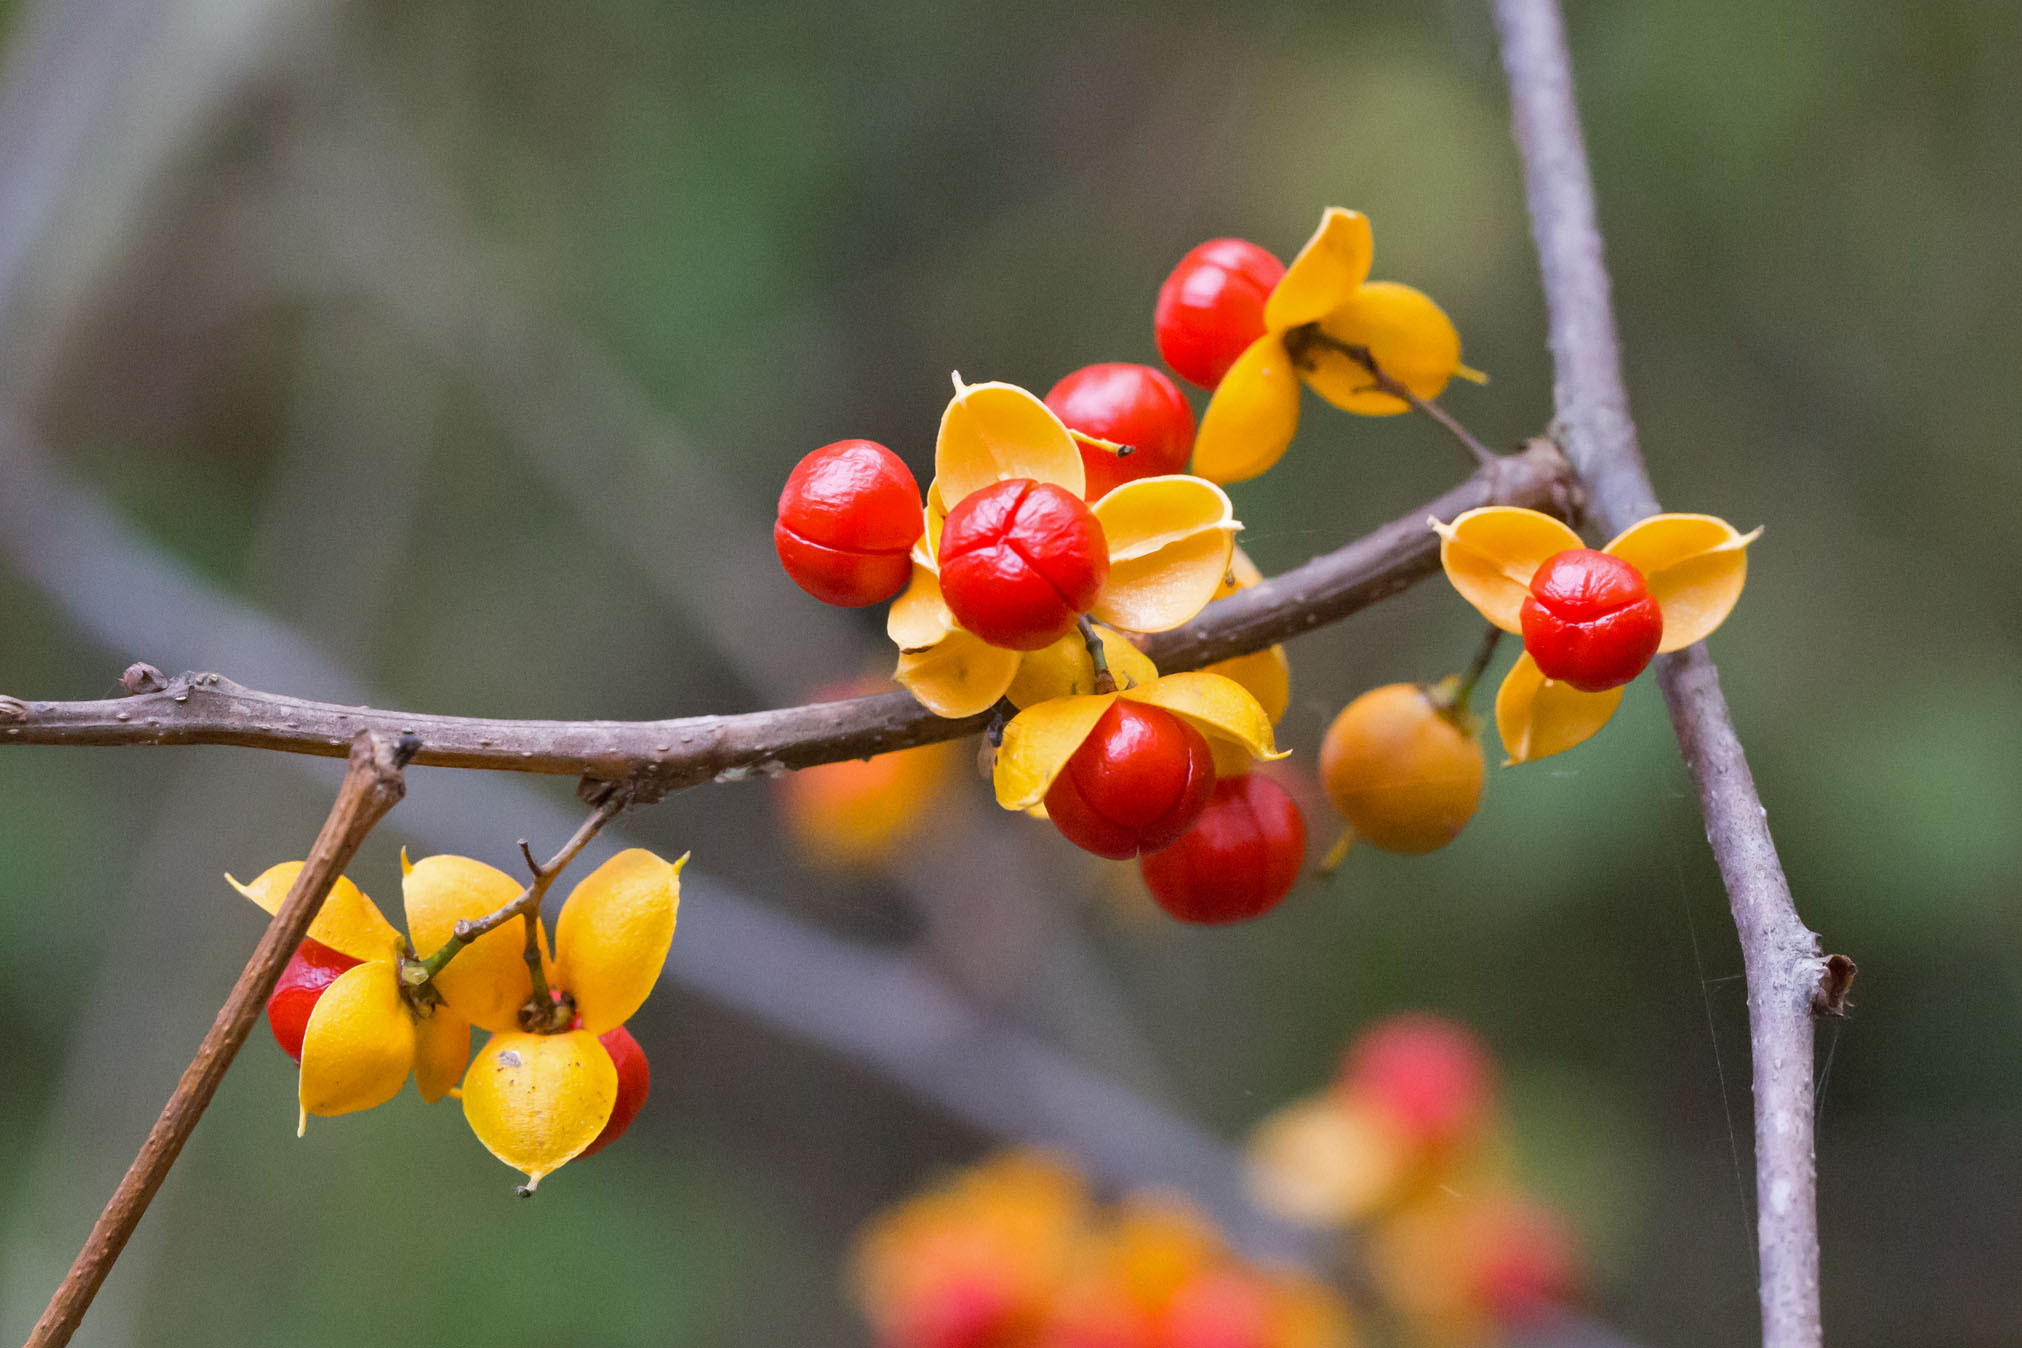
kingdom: Plantae
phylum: Tracheophyta
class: Magnoliopsida
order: Celastrales
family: Celastraceae
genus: Celastrus
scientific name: Celastrus orbiculatus
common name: Oriental bittersweet
